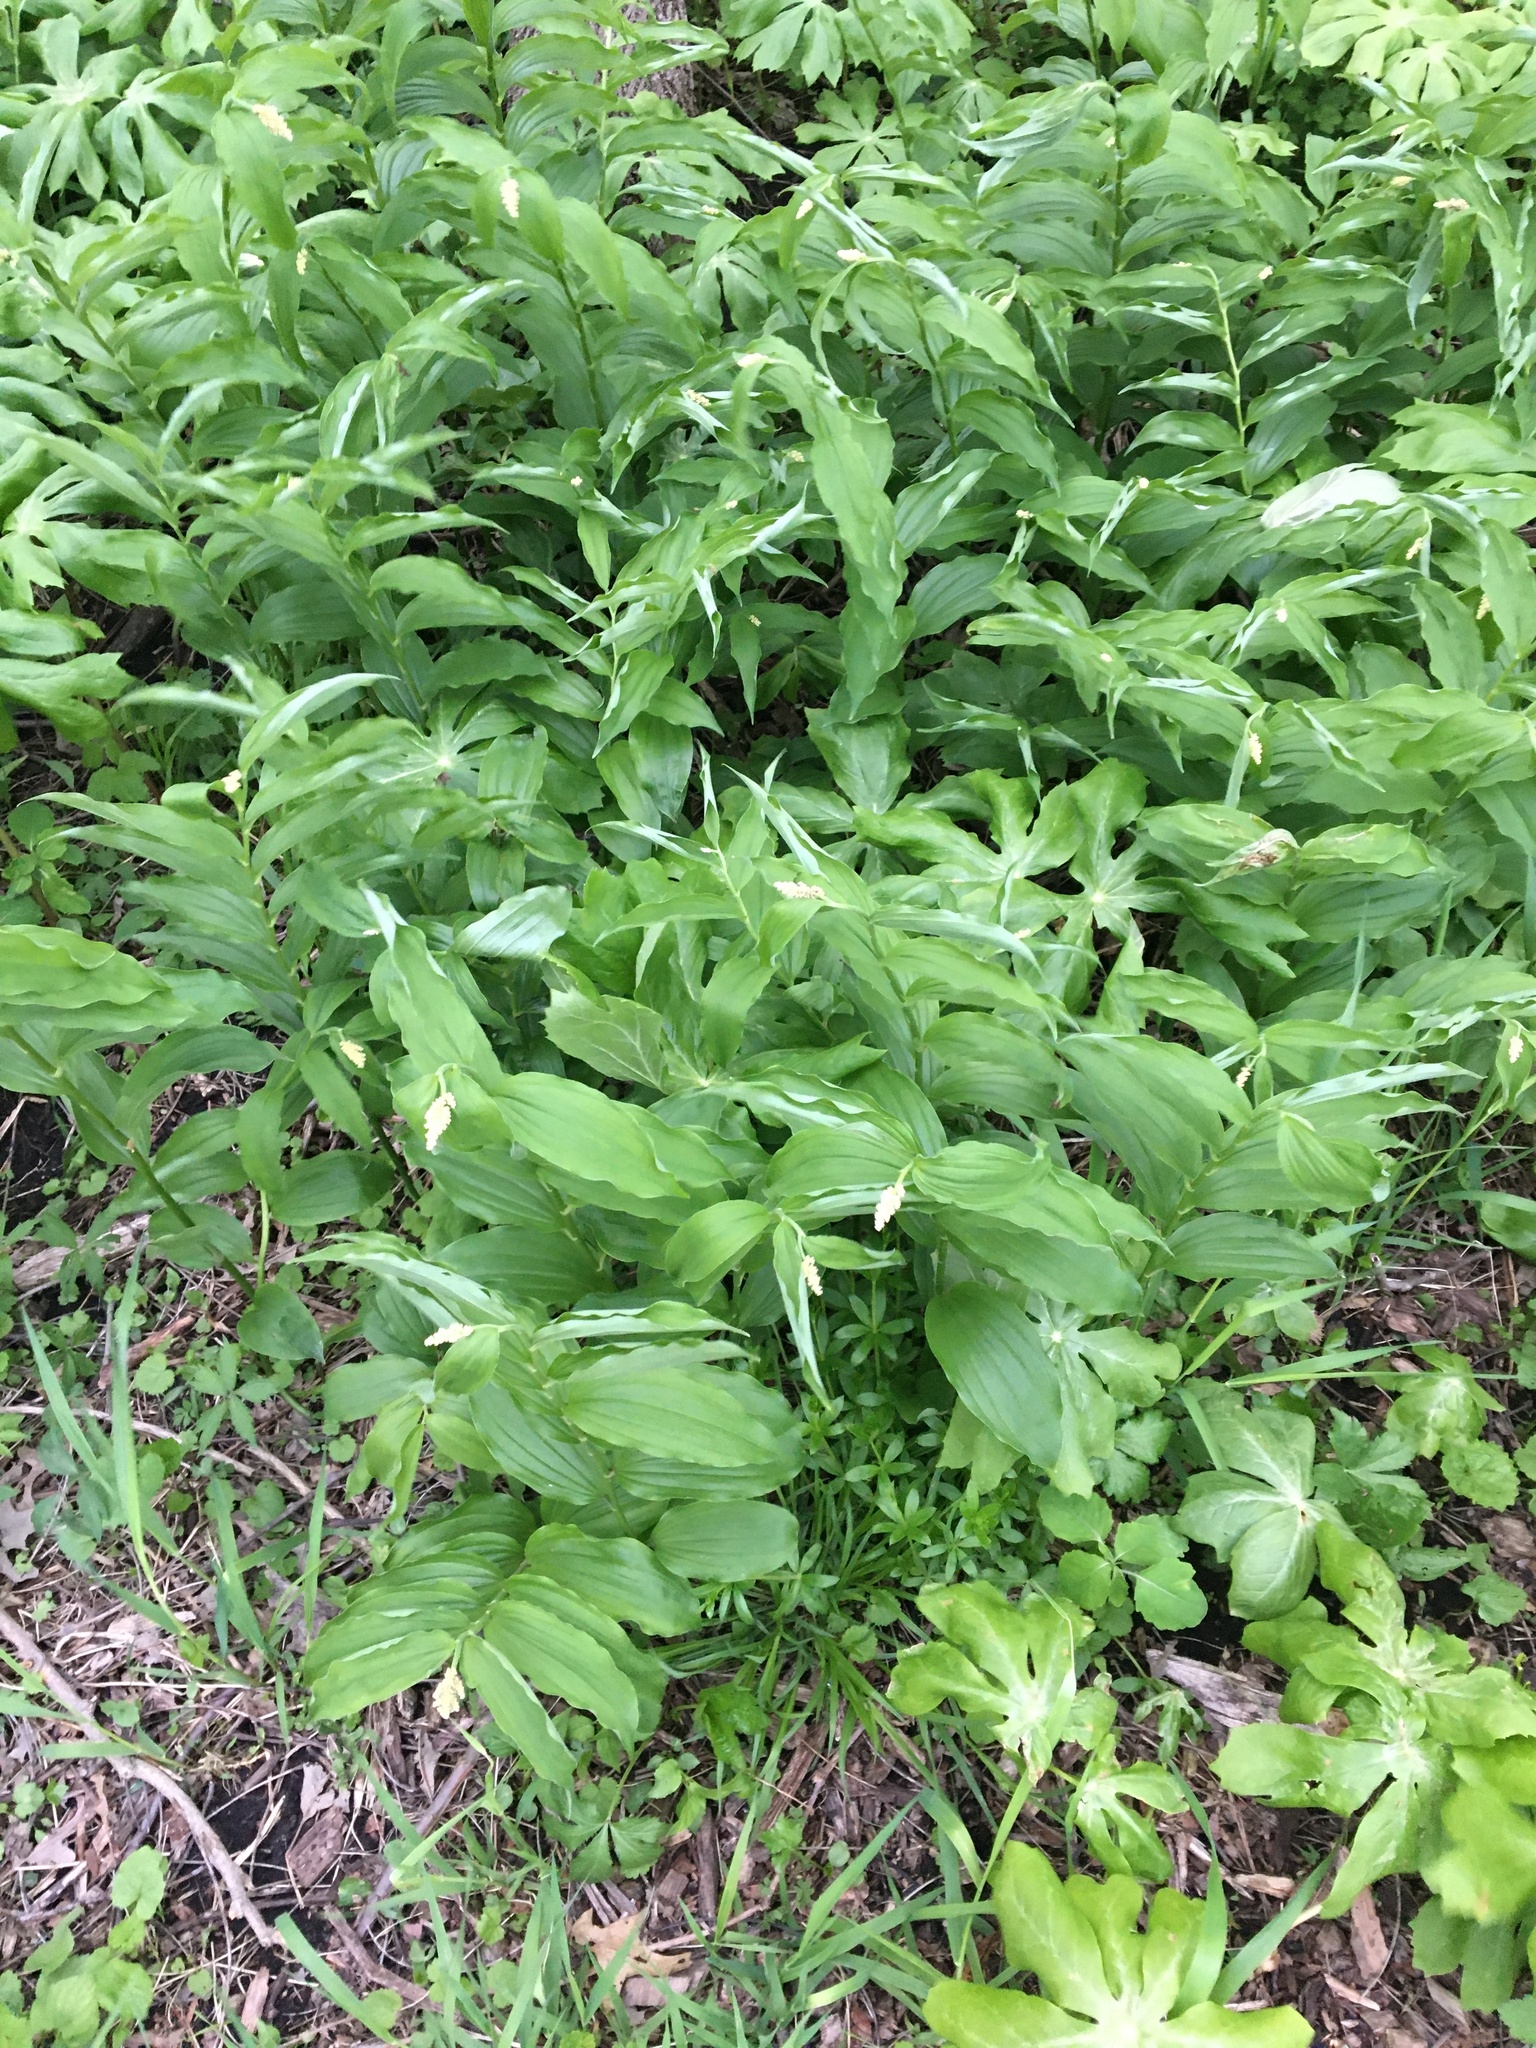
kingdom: Plantae
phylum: Tracheophyta
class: Liliopsida
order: Asparagales
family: Asparagaceae
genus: Maianthemum
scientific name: Maianthemum racemosum
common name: False spikenard
